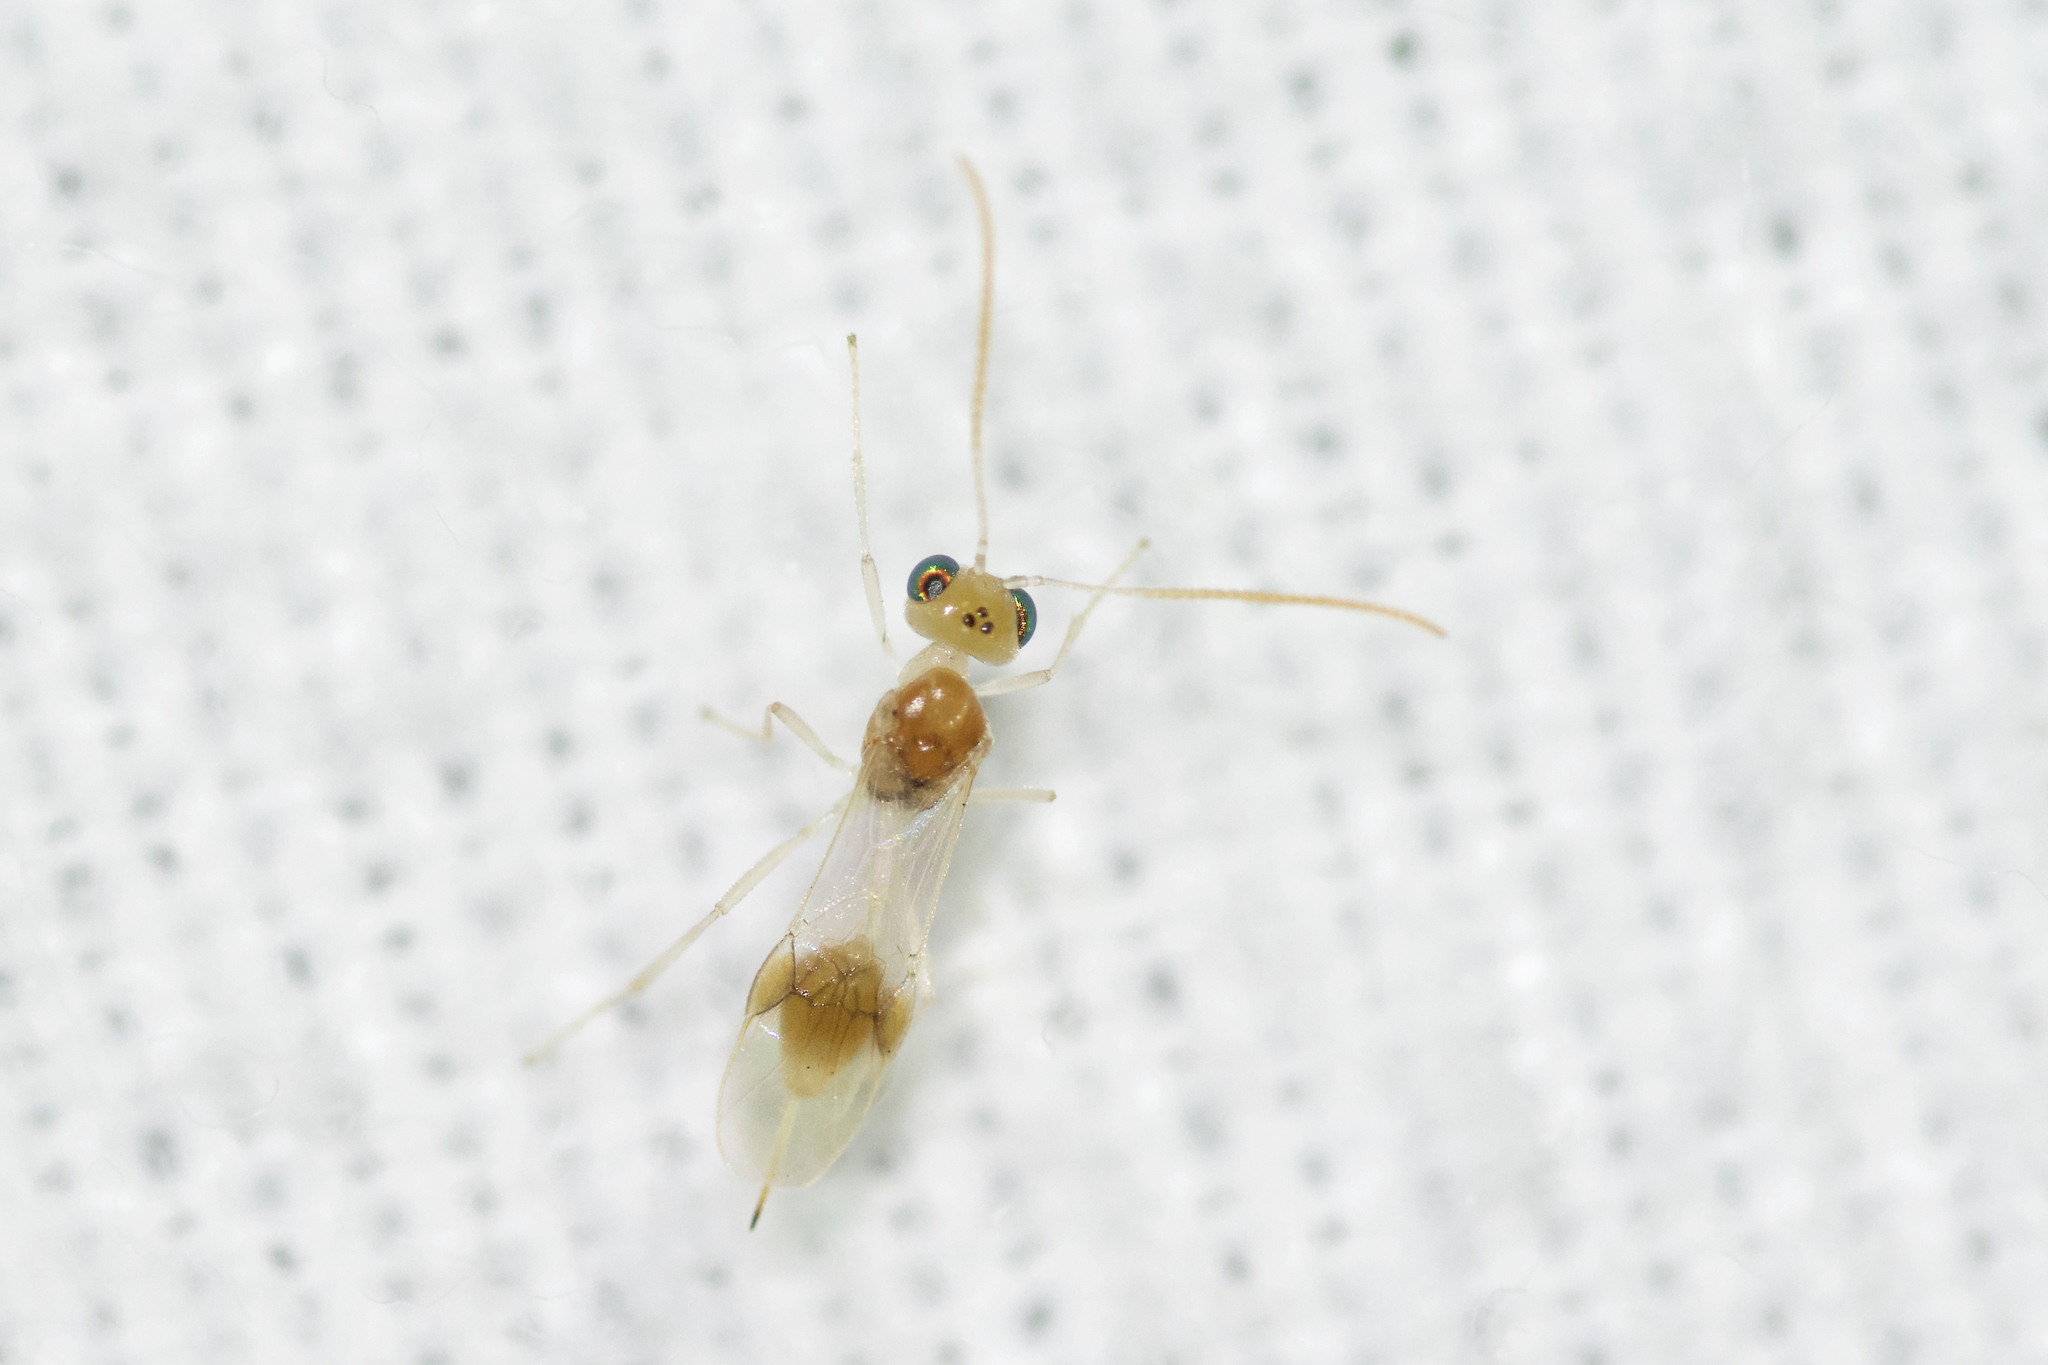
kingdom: Animalia
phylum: Arthropoda
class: Insecta
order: Hymenoptera
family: Braconidae
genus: Chrysopophthorus
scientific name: Chrysopophthorus americanus
